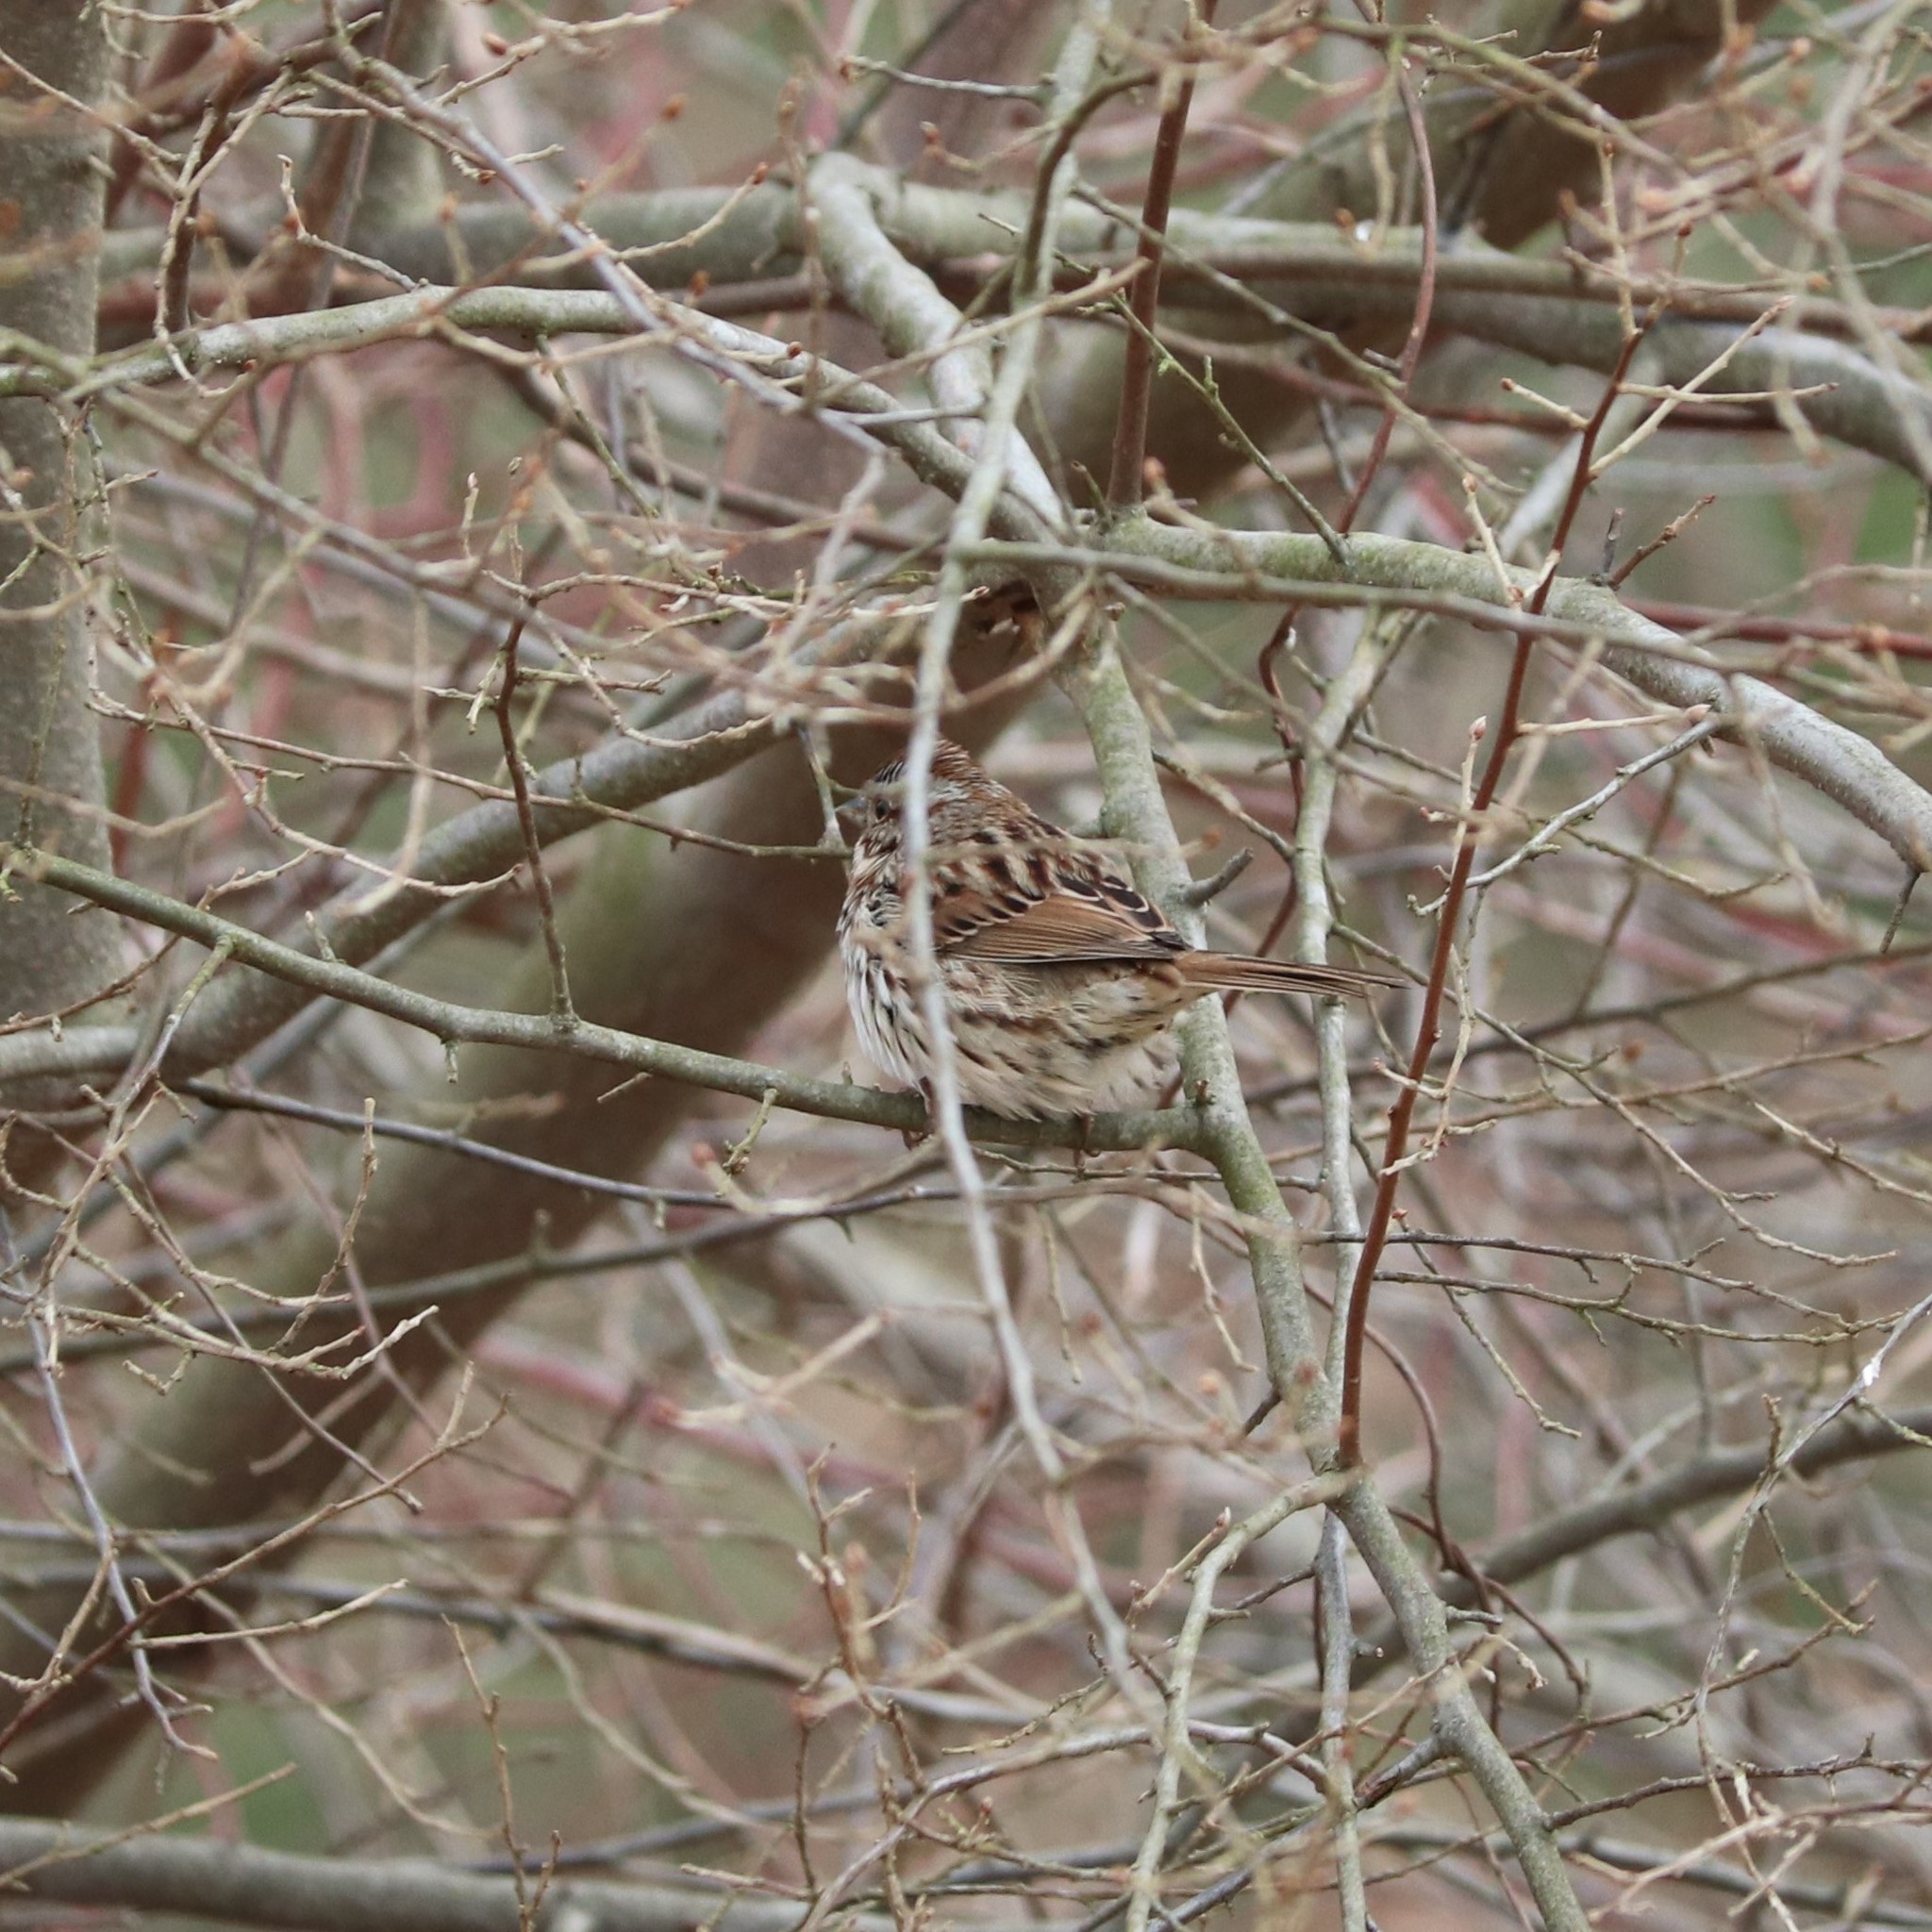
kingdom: Animalia
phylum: Chordata
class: Aves
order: Passeriformes
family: Passerellidae
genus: Melospiza
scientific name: Melospiza melodia
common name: Song sparrow
